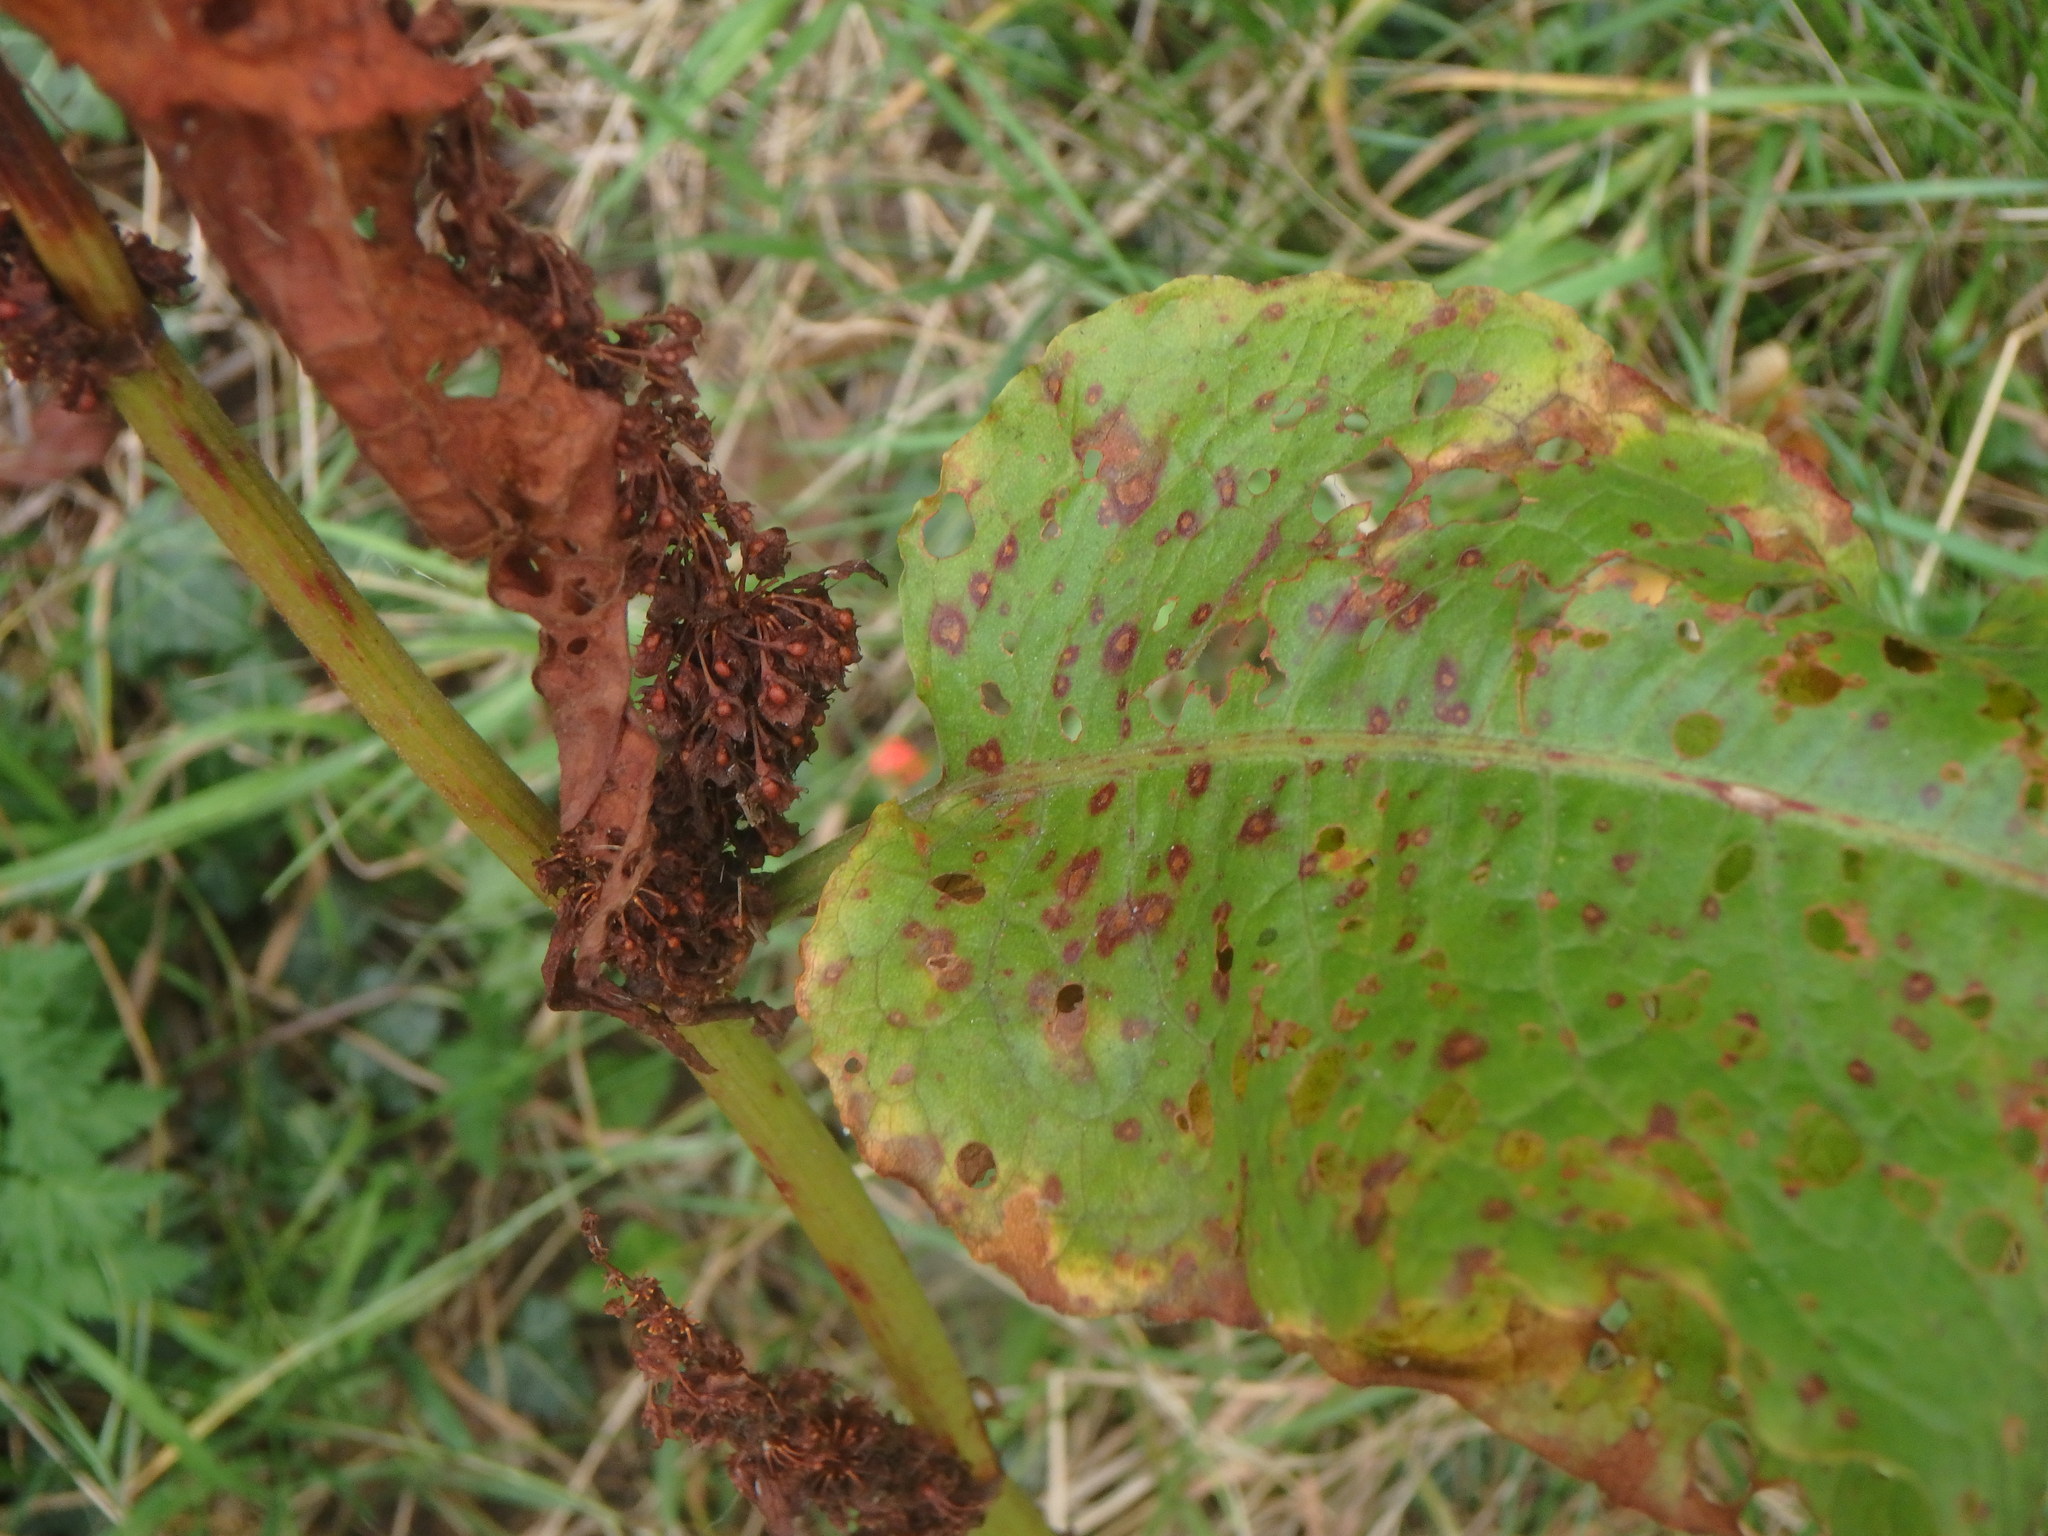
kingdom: Plantae
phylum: Tracheophyta
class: Magnoliopsida
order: Caryophyllales
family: Polygonaceae
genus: Rumex
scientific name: Rumex obtusifolius
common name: Bitter dock
